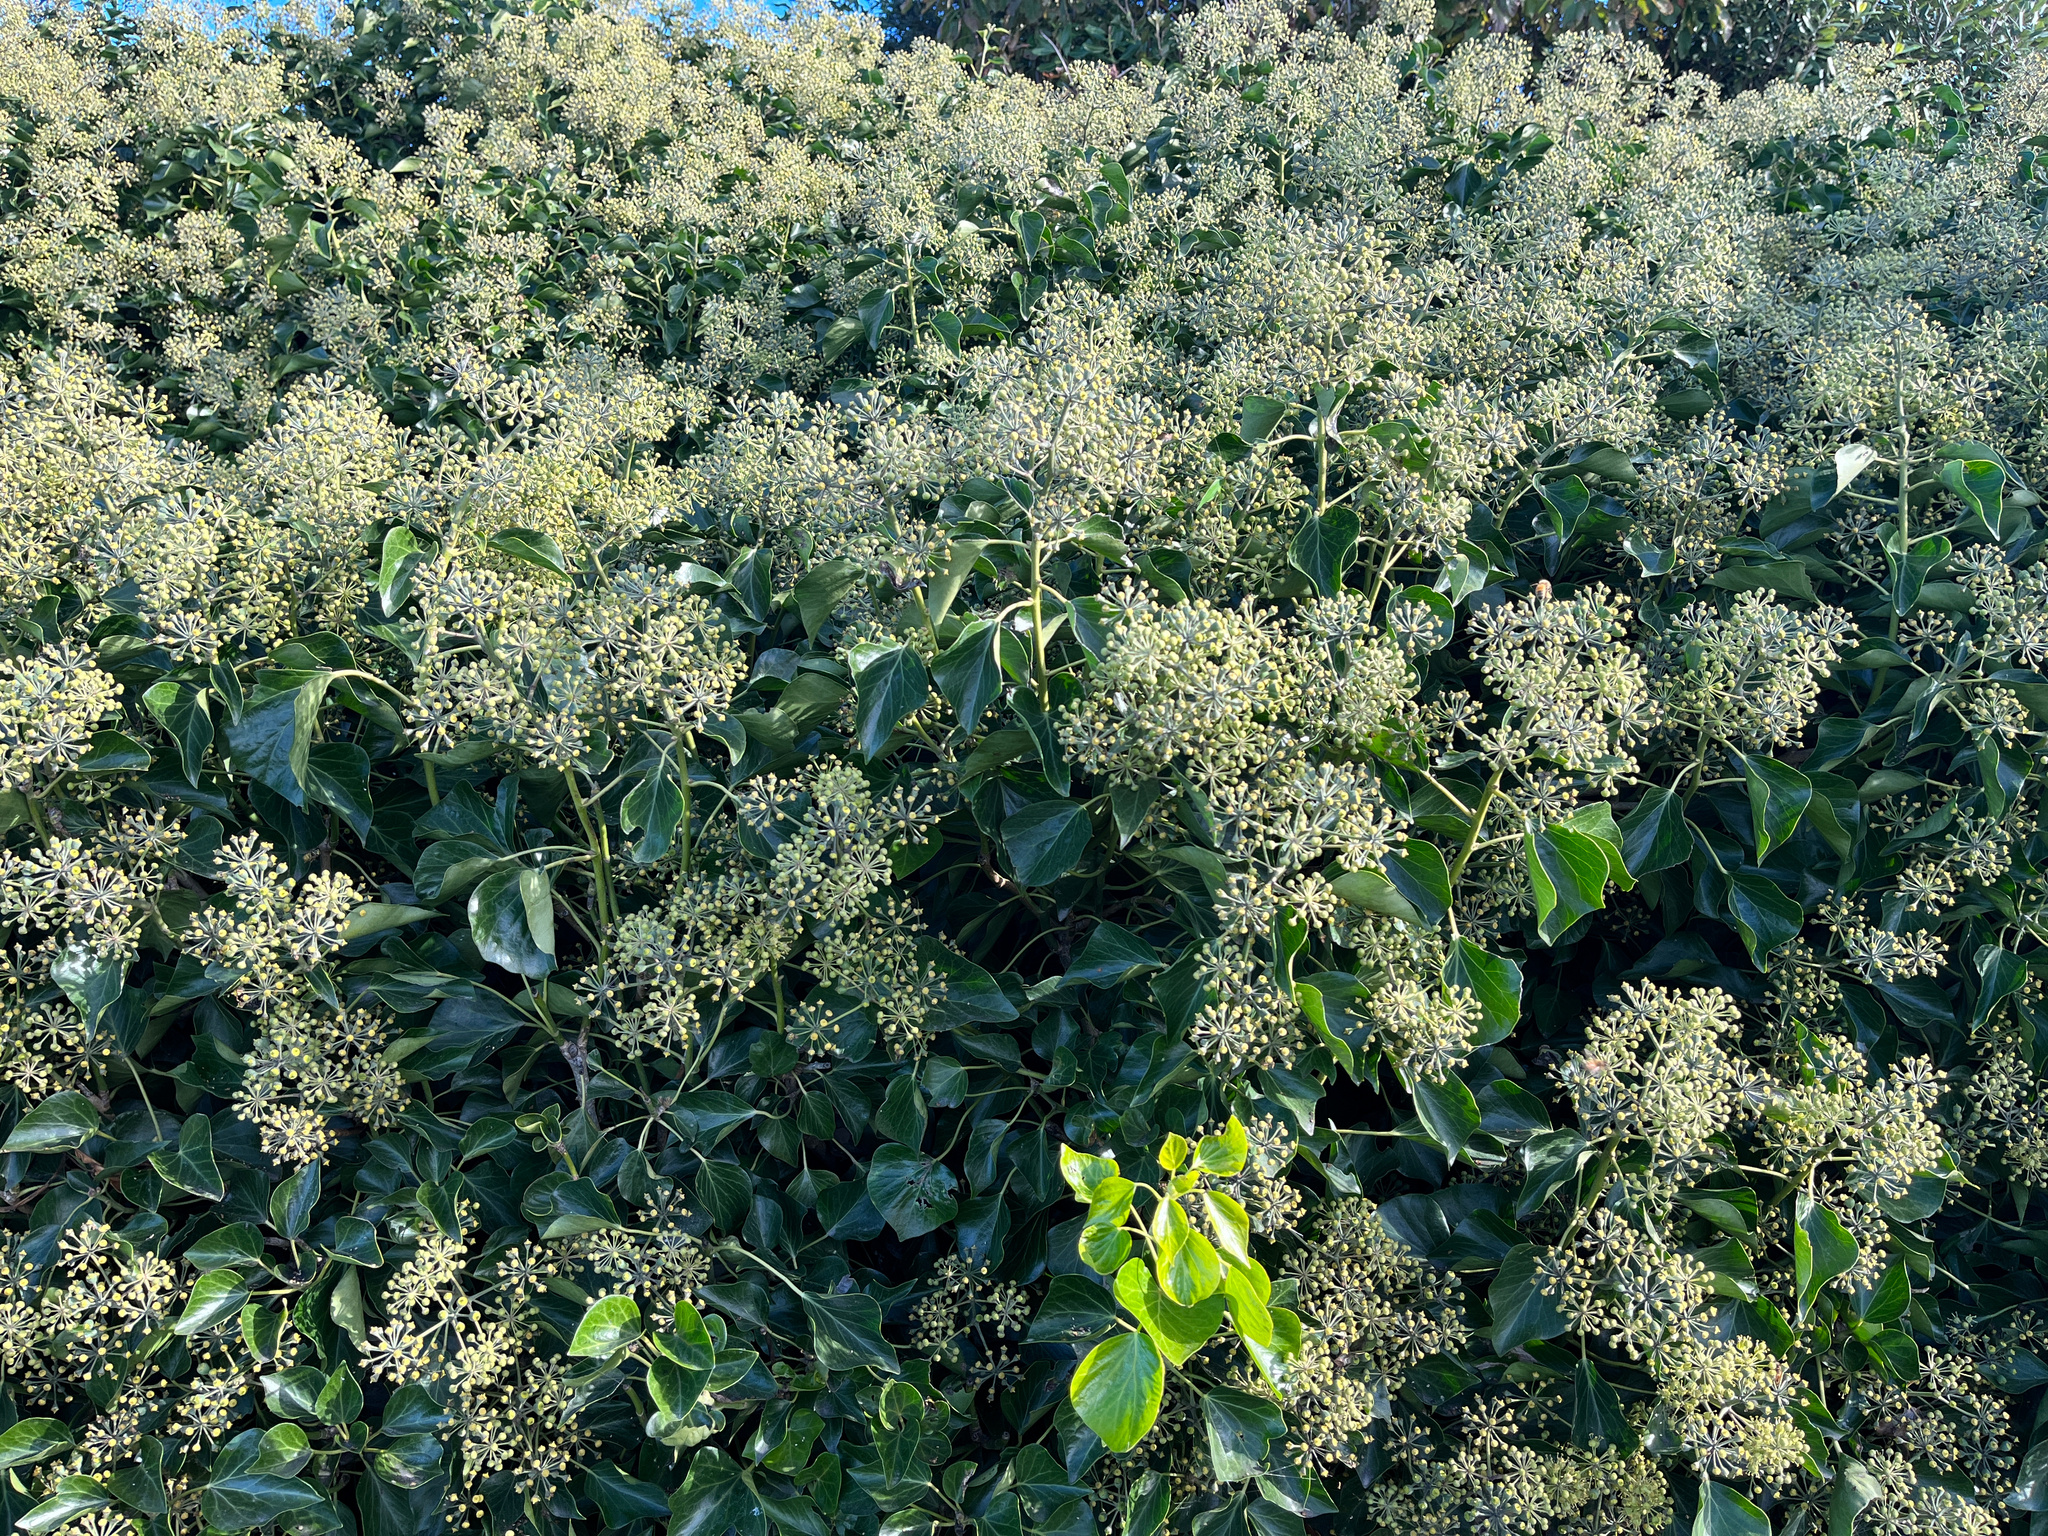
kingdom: Plantae
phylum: Tracheophyta
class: Magnoliopsida
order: Apiales
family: Araliaceae
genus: Hedera
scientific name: Hedera helix
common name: Ivy
